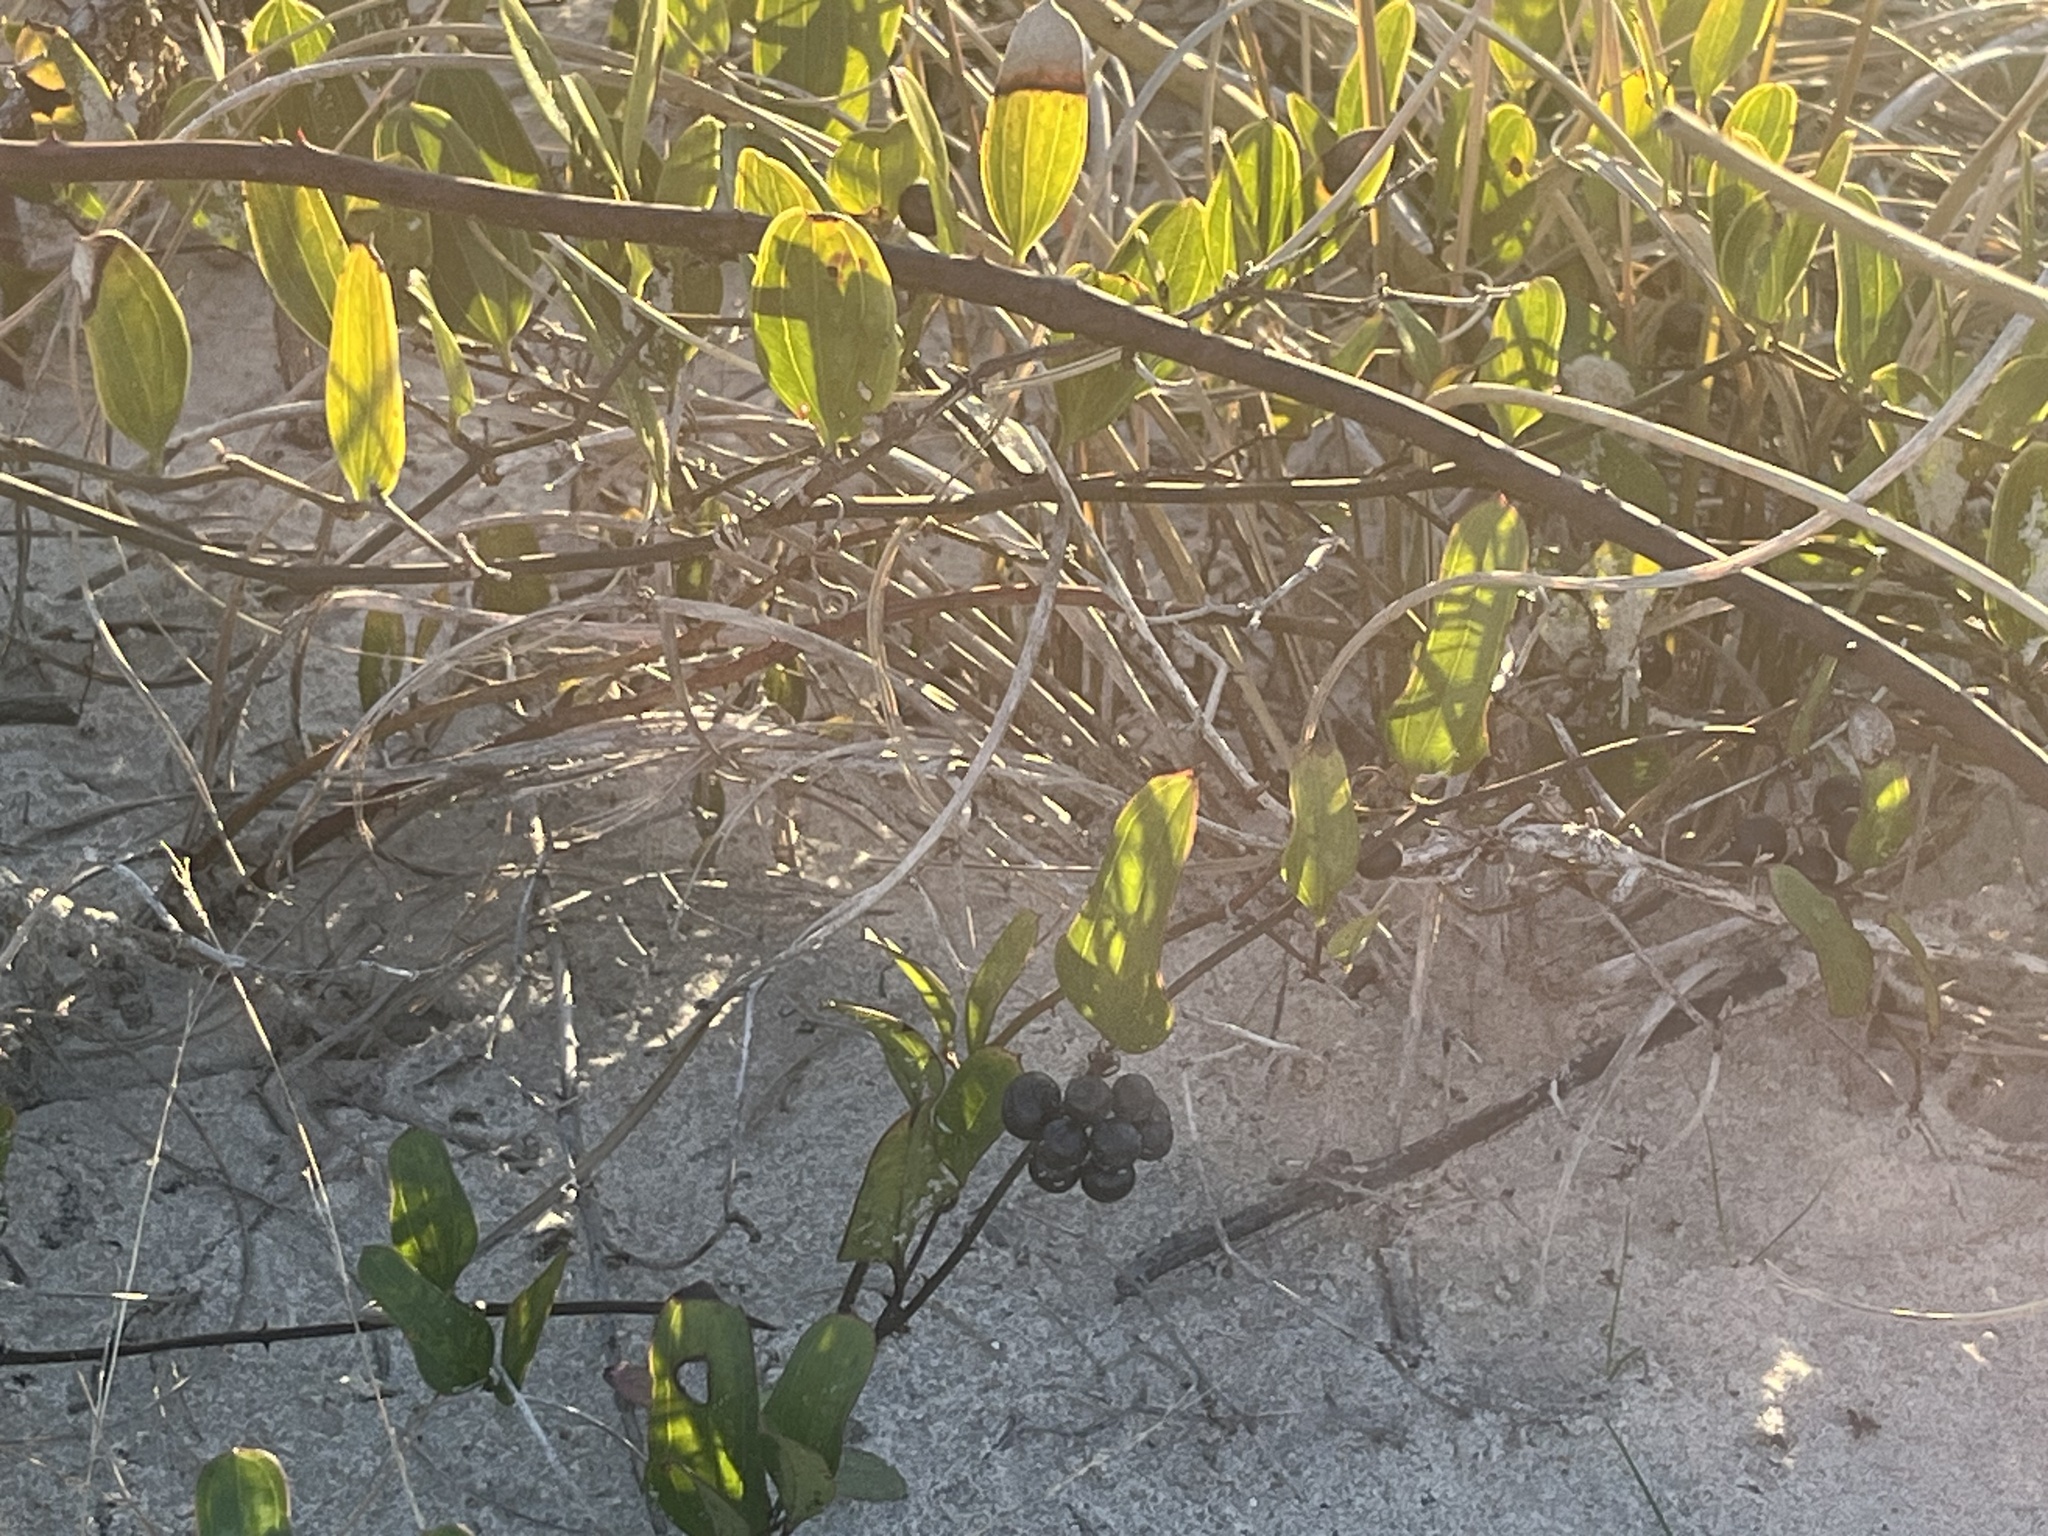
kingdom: Plantae
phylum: Tracheophyta
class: Liliopsida
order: Liliales
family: Smilacaceae
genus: Smilax
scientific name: Smilax auriculata
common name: Wild bamboo
